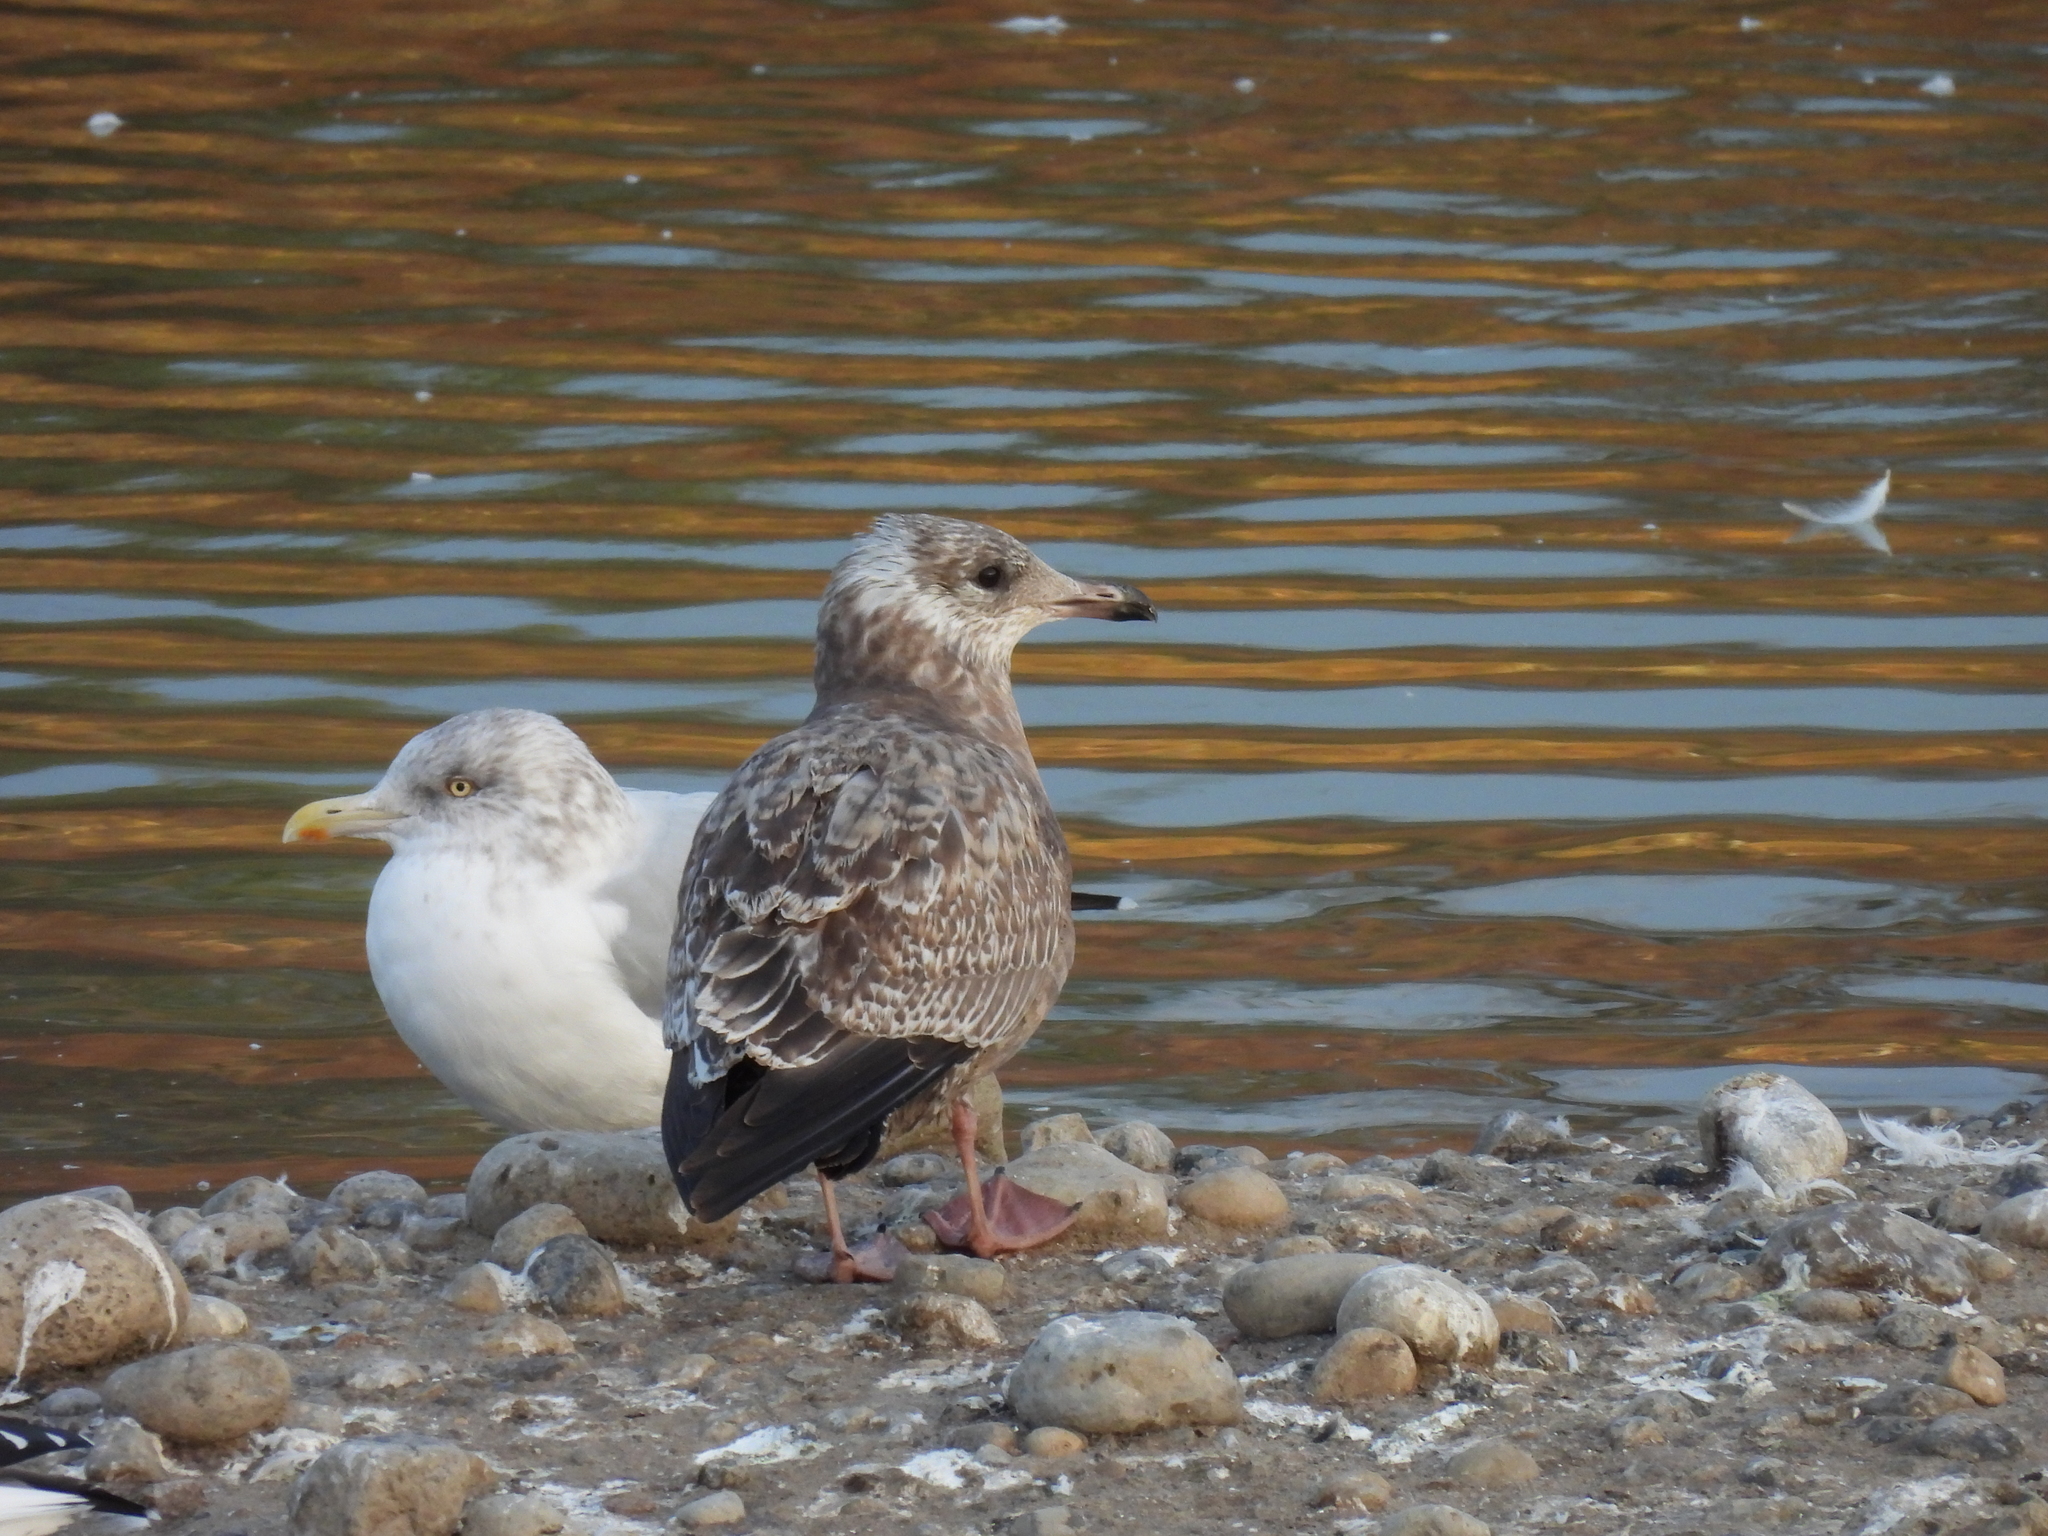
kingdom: Animalia
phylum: Chordata
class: Aves
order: Charadriiformes
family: Laridae
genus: Larus
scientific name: Larus smithsonianus
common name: American herring gull
